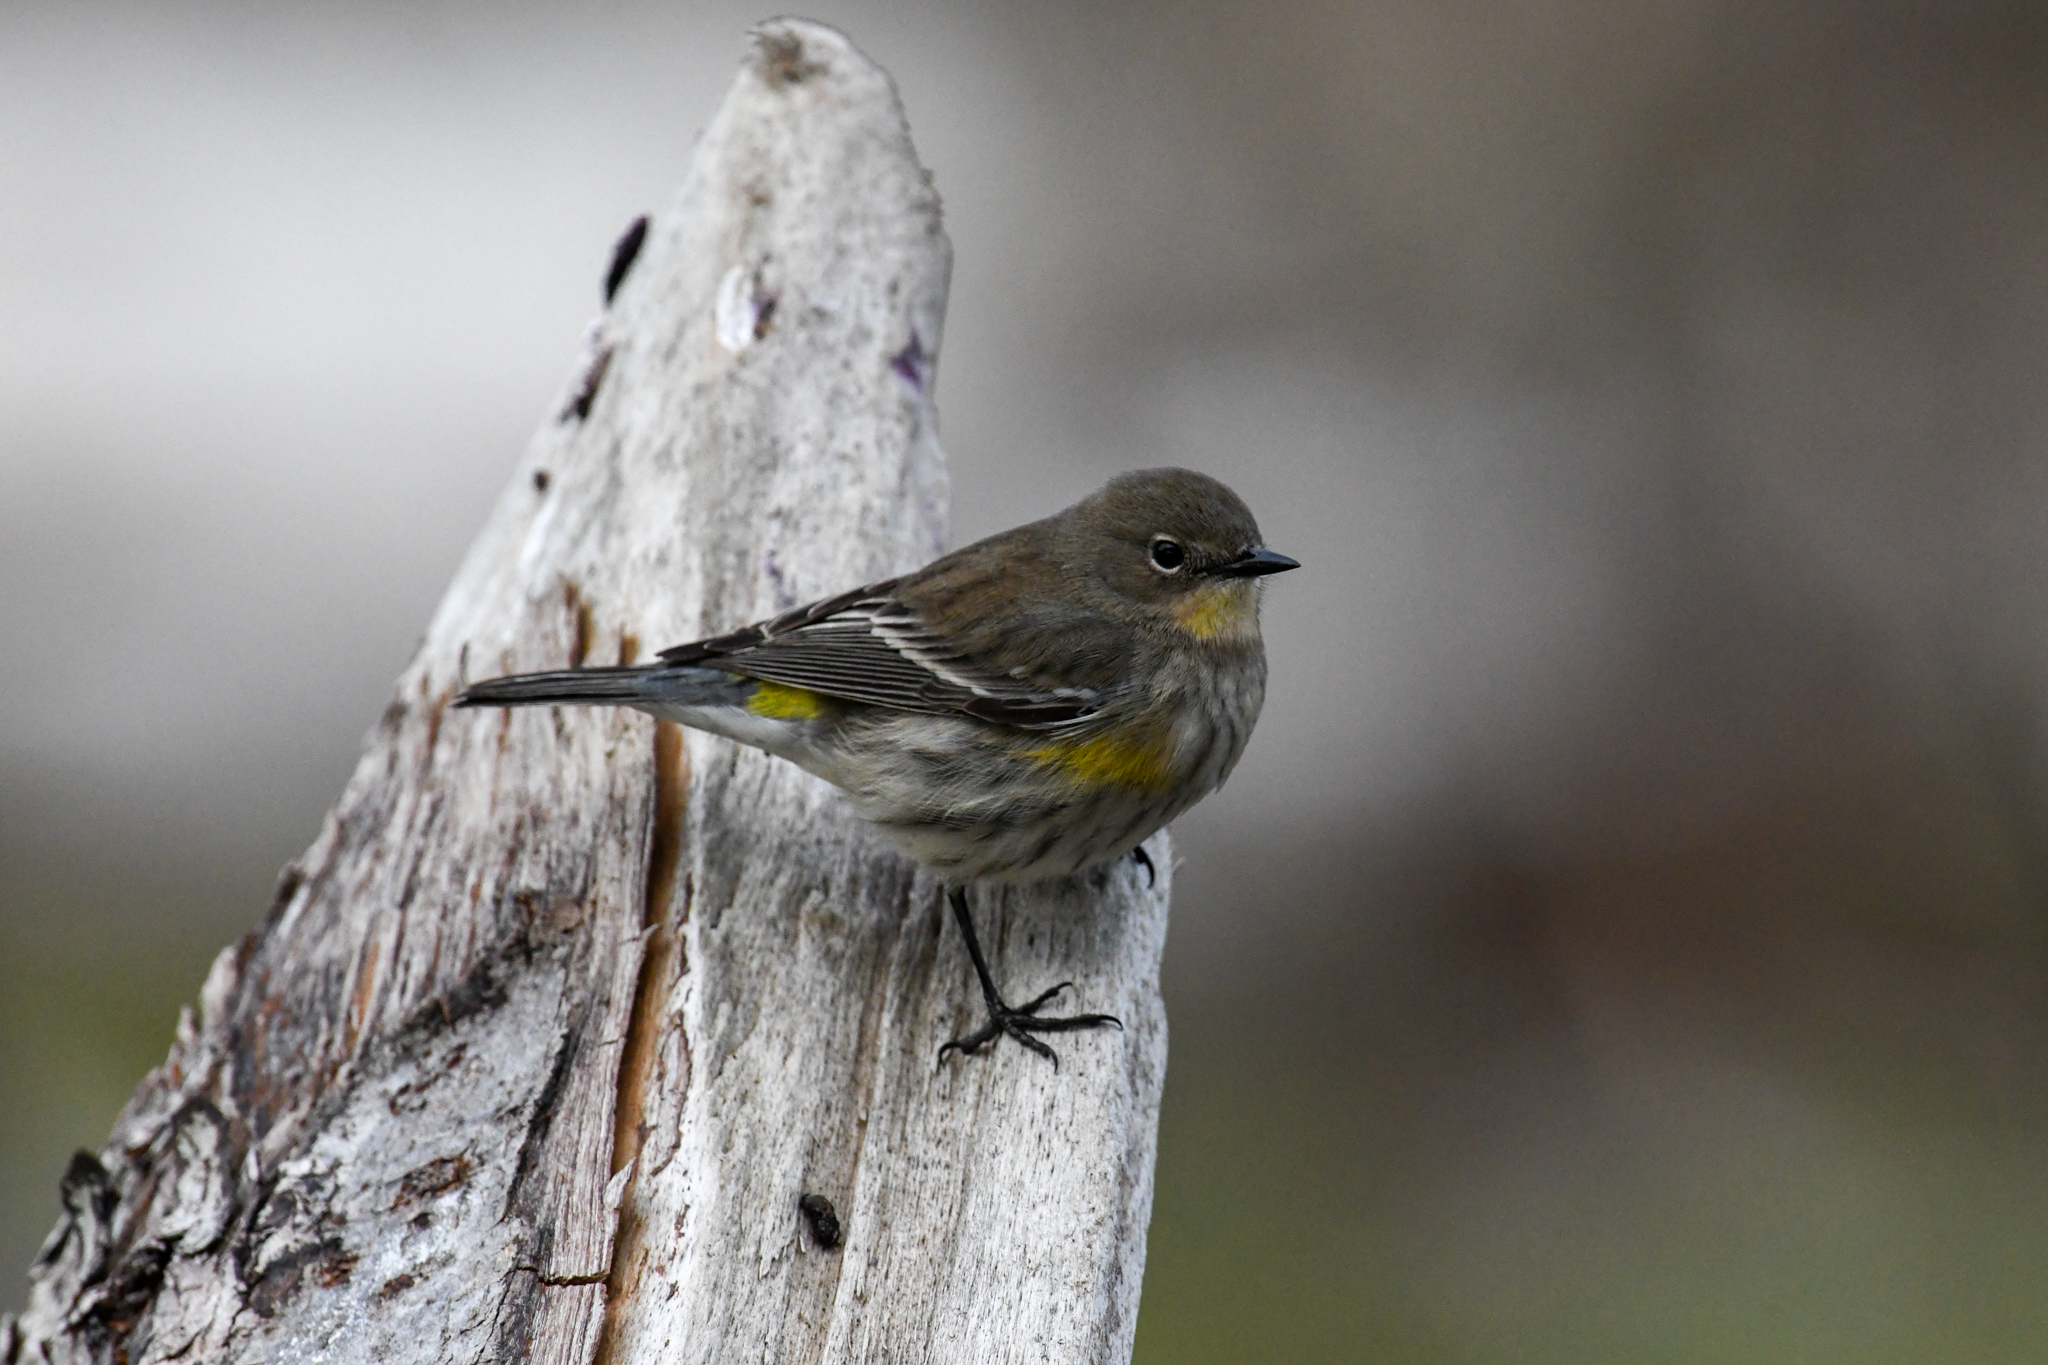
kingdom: Animalia
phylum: Chordata
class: Aves
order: Passeriformes
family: Parulidae
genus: Setophaga
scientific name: Setophaga coronata
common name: Myrtle warbler
